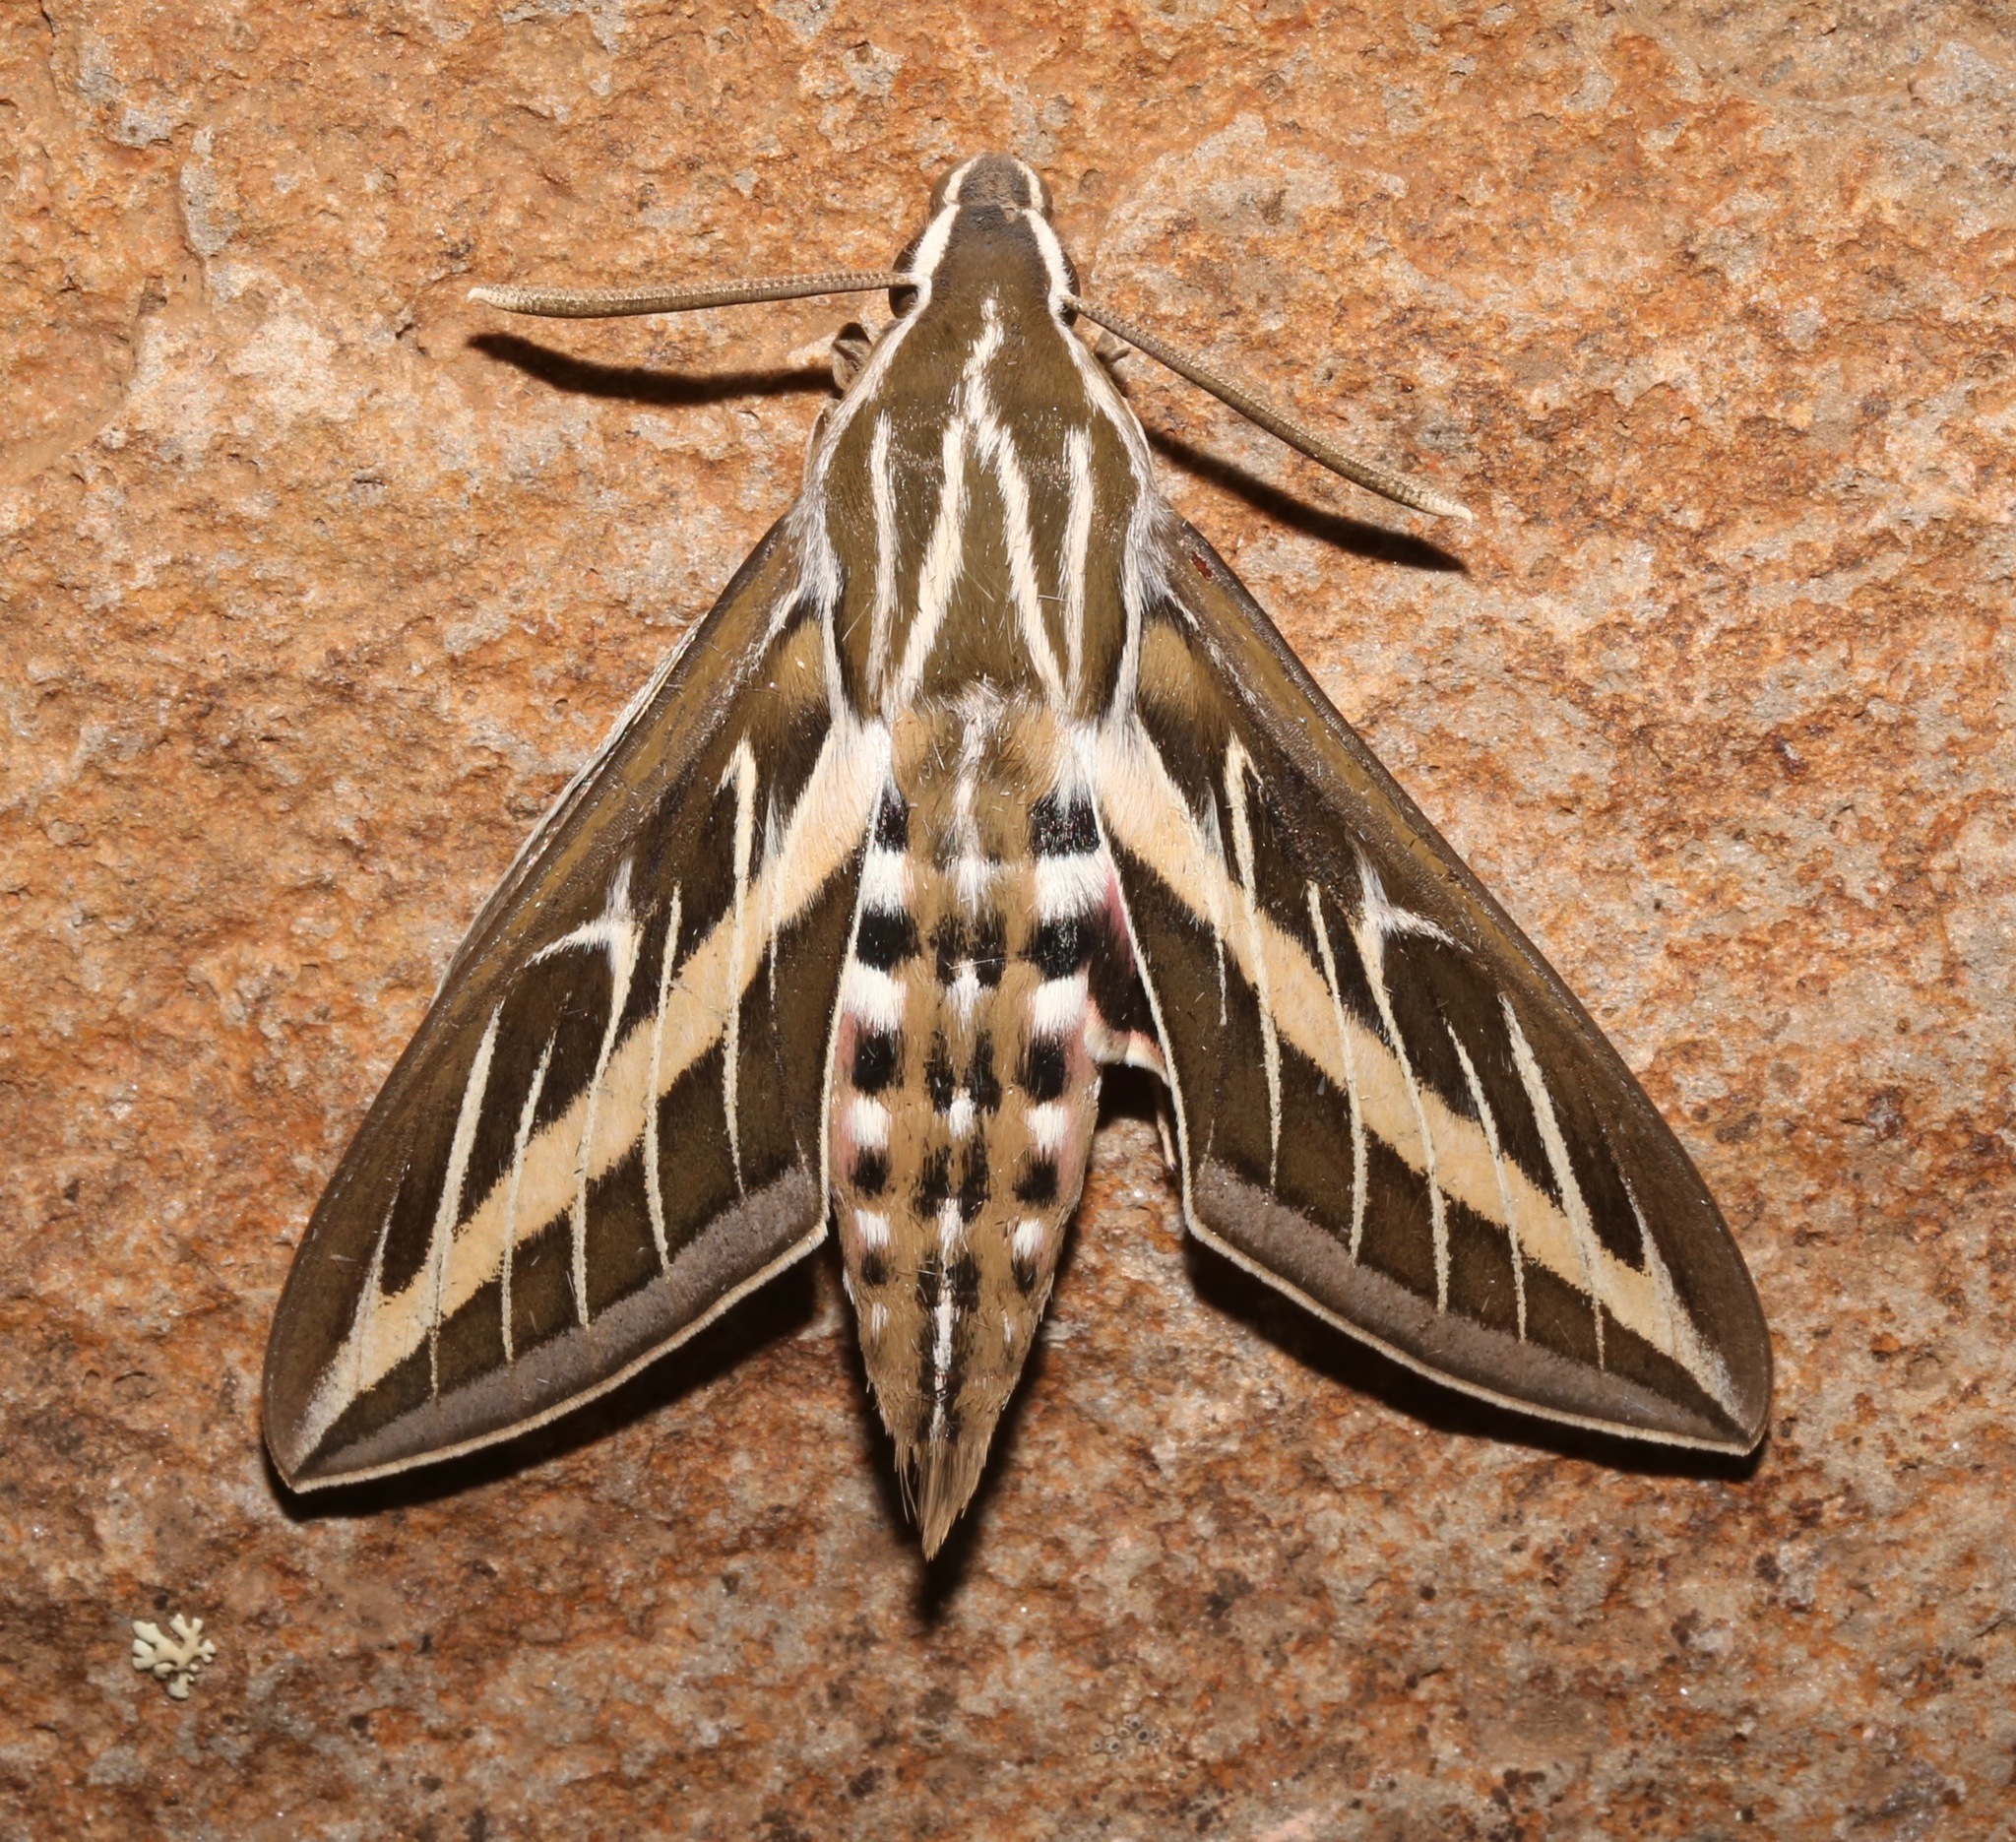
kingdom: Animalia
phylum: Arthropoda
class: Insecta
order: Lepidoptera
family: Sphingidae
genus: Hyles
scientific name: Hyles lineata
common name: White-lined sphinx
